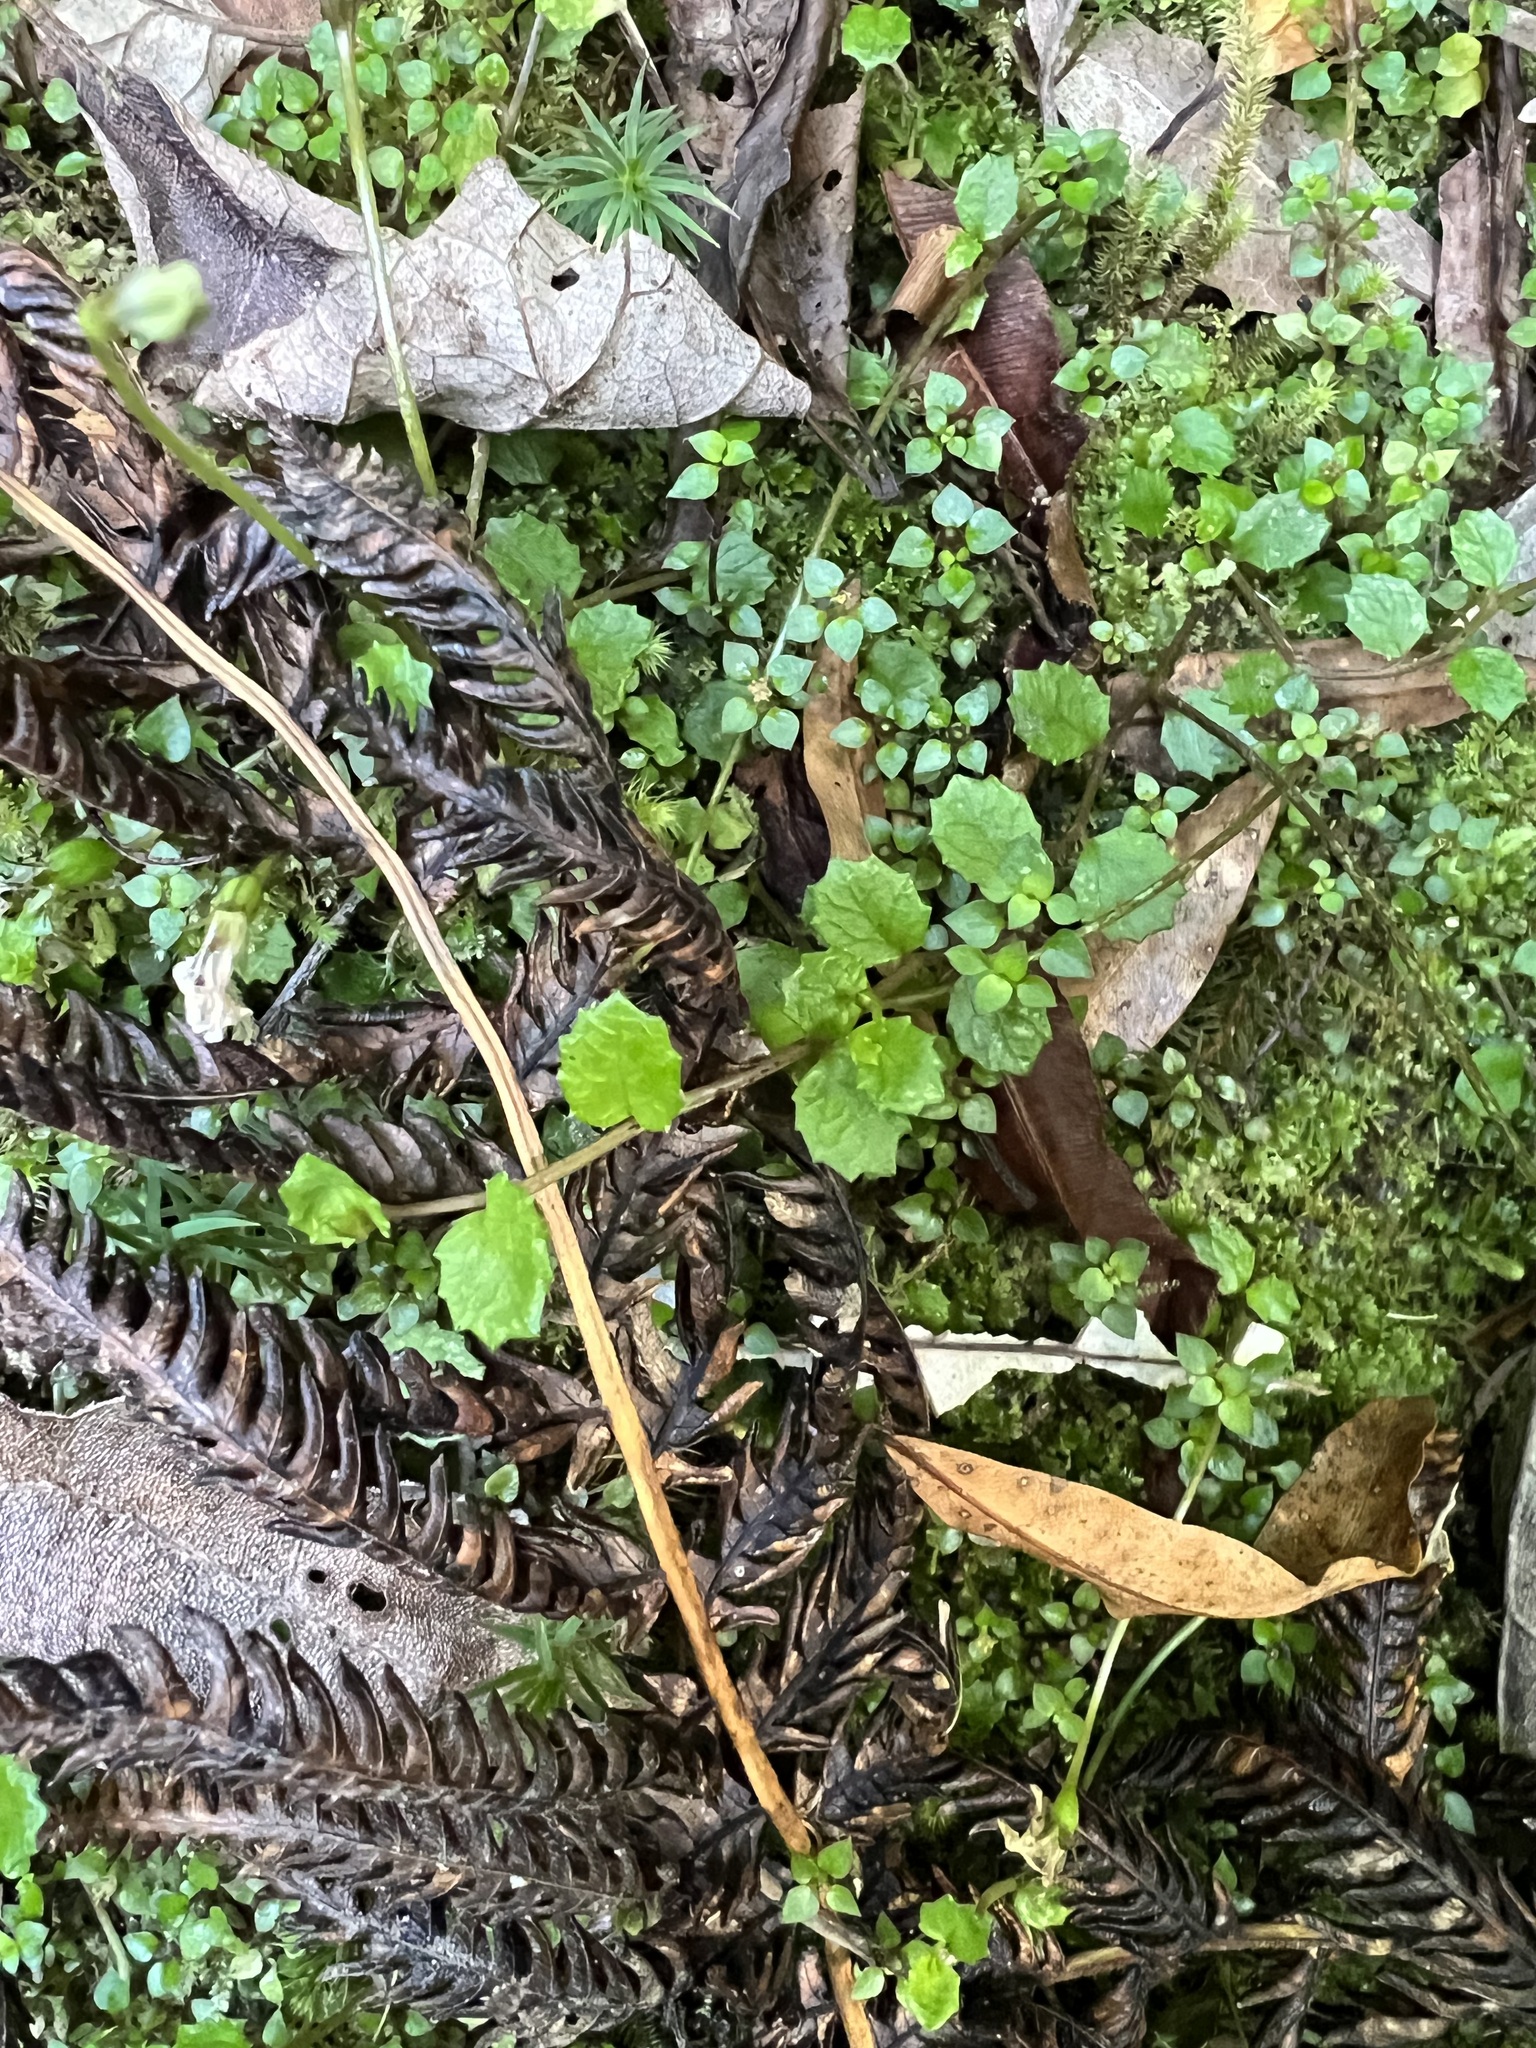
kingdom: Plantae
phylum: Tracheophyta
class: Magnoliopsida
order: Asterales
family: Campanulaceae
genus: Lobelia
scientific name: Lobelia angulata
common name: Lawn lobelia
